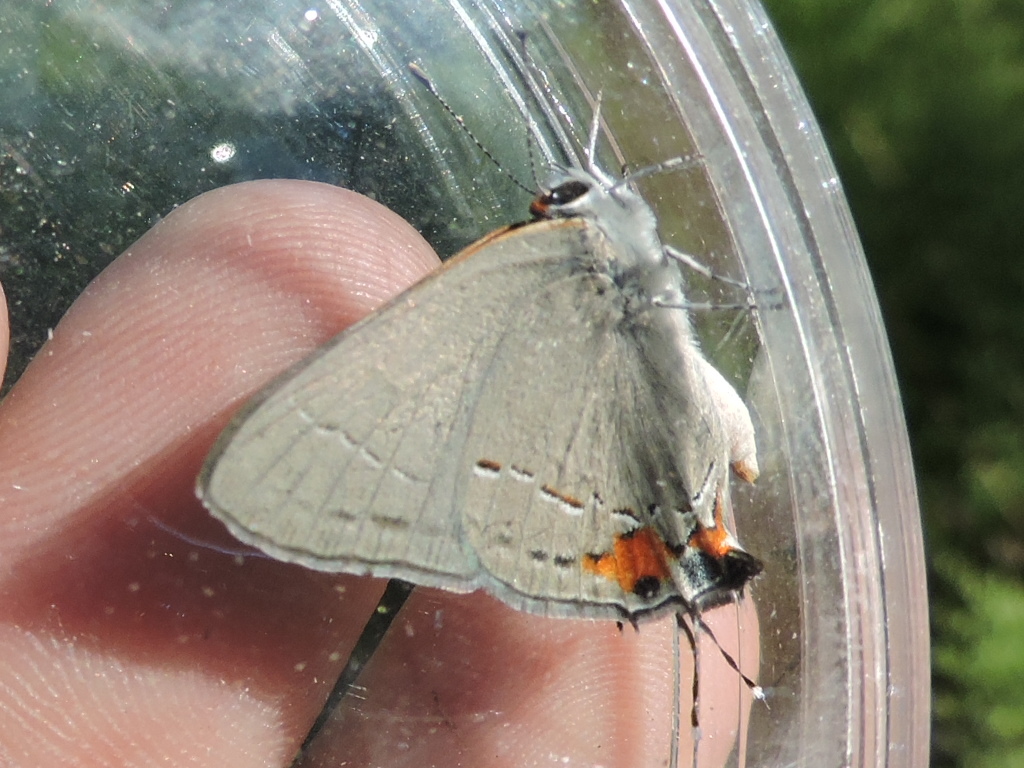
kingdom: Animalia
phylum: Arthropoda
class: Insecta
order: Lepidoptera
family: Lycaenidae
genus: Strymon
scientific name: Strymon melinus
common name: Gray hairstreak
